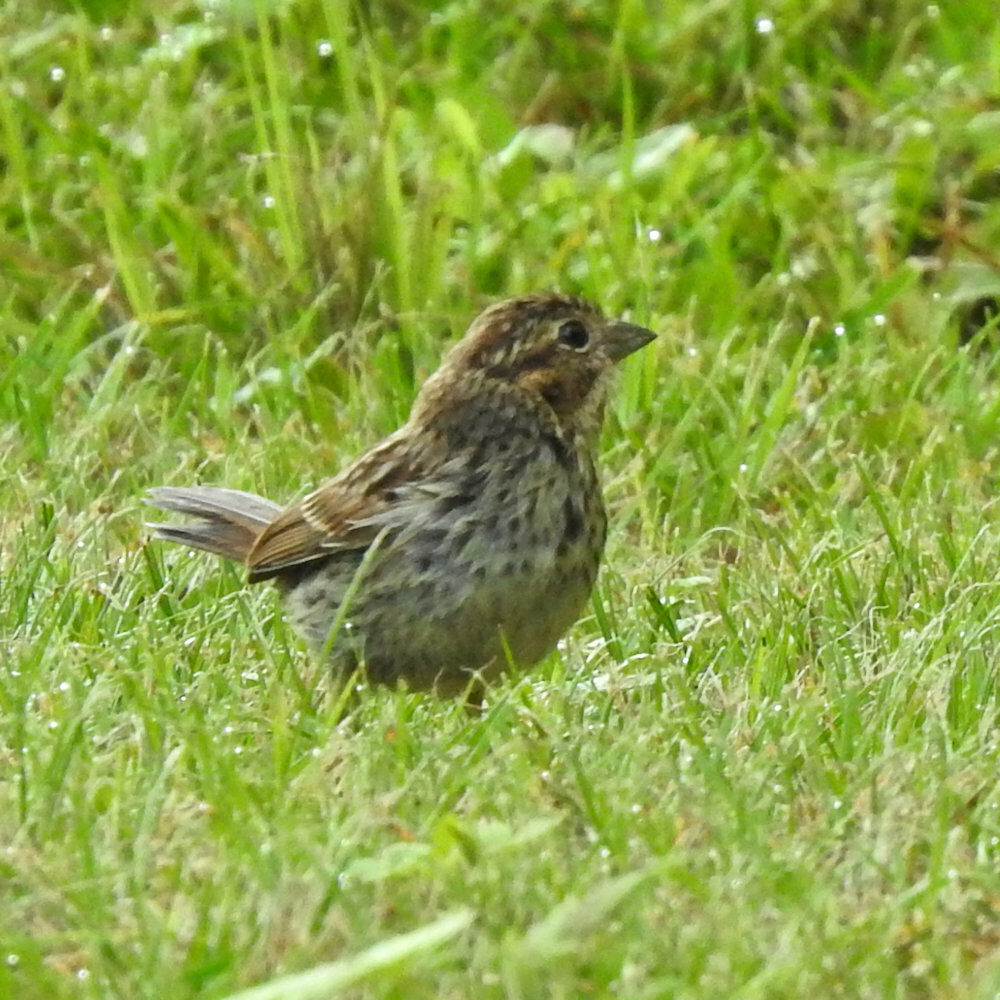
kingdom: Animalia
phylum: Chordata
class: Aves
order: Passeriformes
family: Passerellidae
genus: Melospiza
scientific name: Melospiza melodia
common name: Song sparrow
